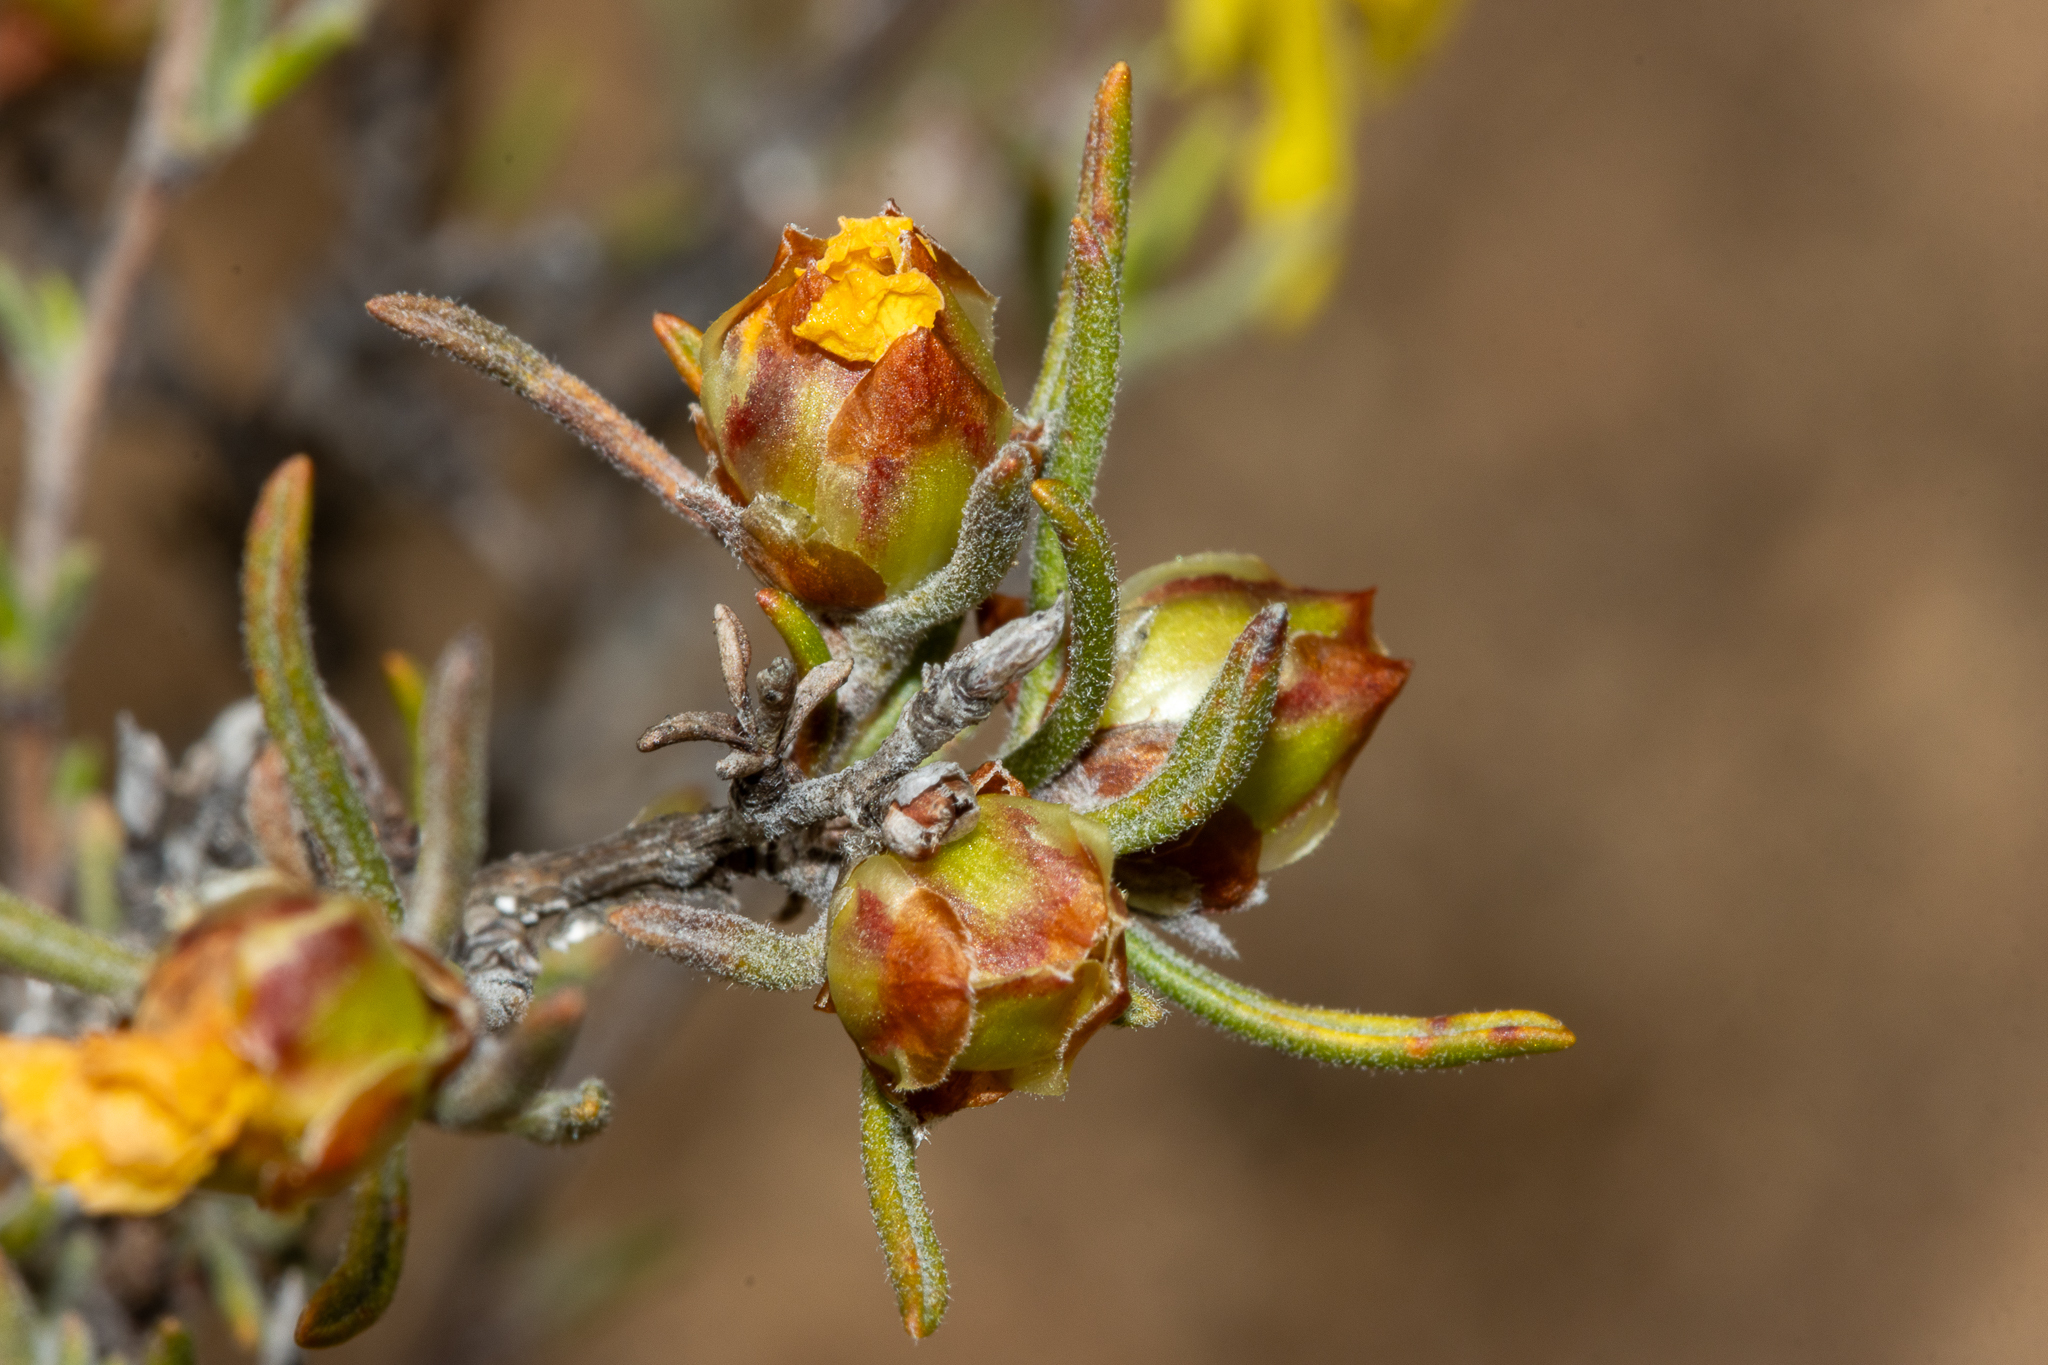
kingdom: Plantae
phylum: Tracheophyta
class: Magnoliopsida
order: Dilleniales
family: Dilleniaceae
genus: Hibbertia
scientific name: Hibbertia virgata
